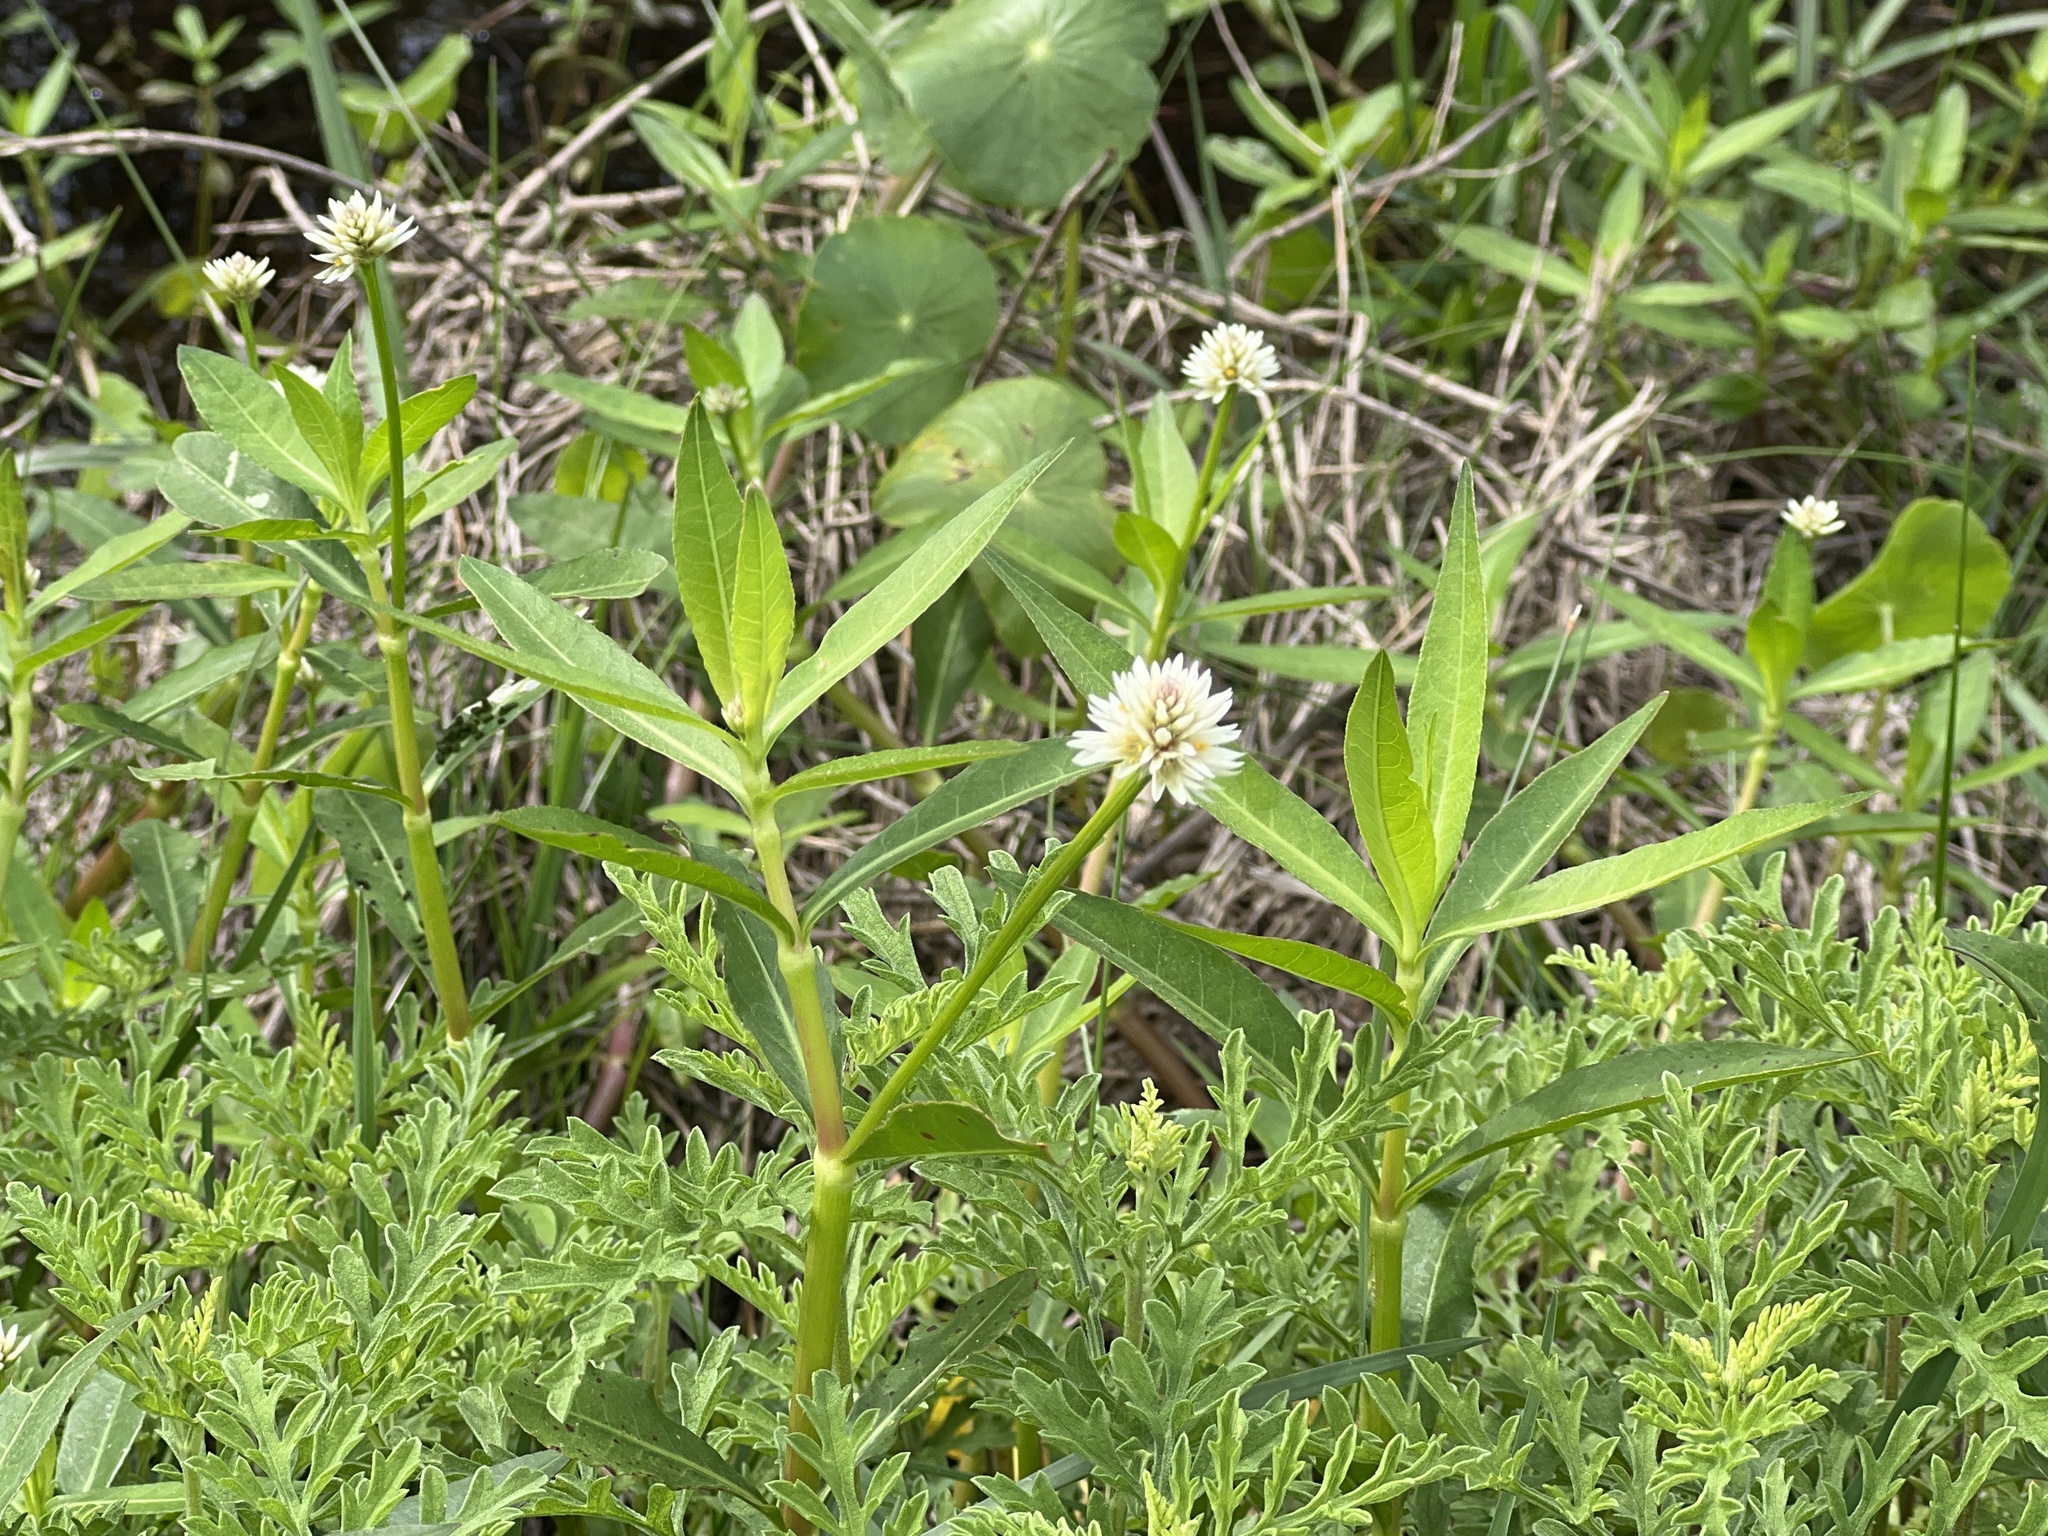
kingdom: Plantae
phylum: Tracheophyta
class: Magnoliopsida
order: Caryophyllales
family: Amaranthaceae
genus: Alternanthera
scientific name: Alternanthera philoxeroides
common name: Alligatorweed
